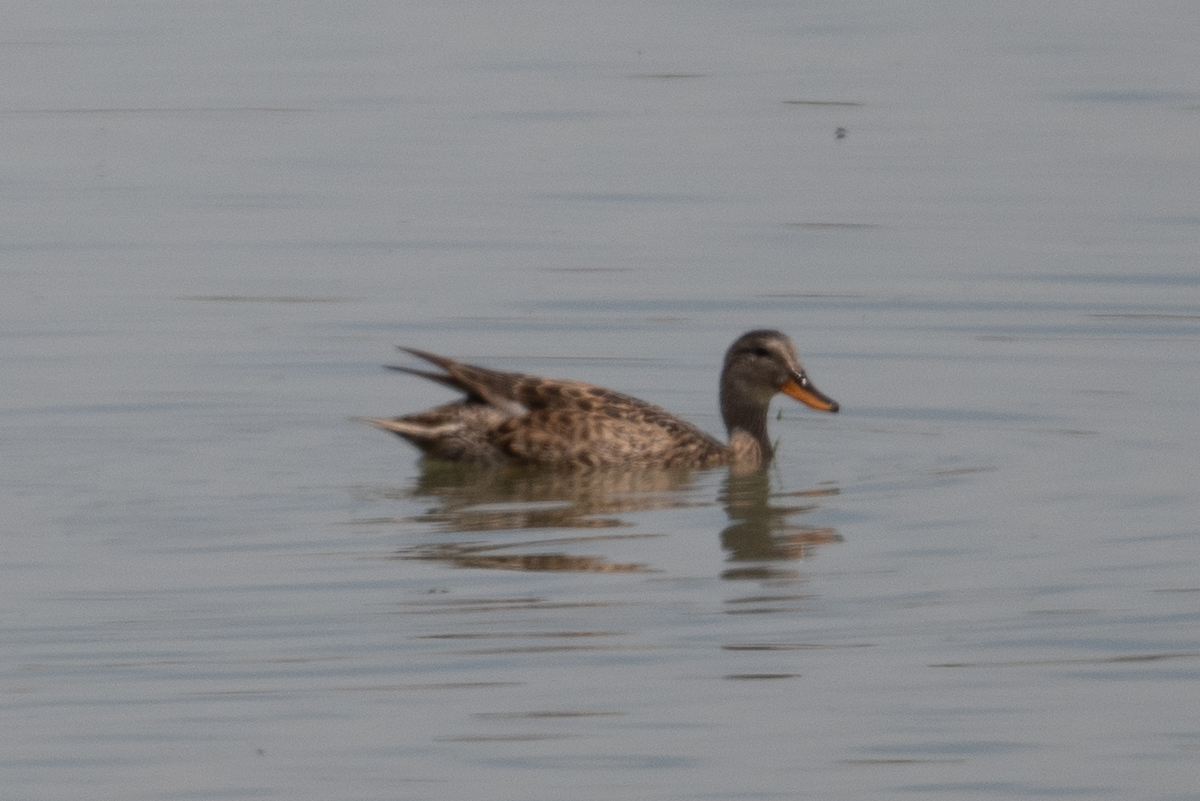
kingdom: Animalia
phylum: Chordata
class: Aves
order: Anseriformes
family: Anatidae
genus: Mareca
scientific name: Mareca strepera
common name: Gadwall
